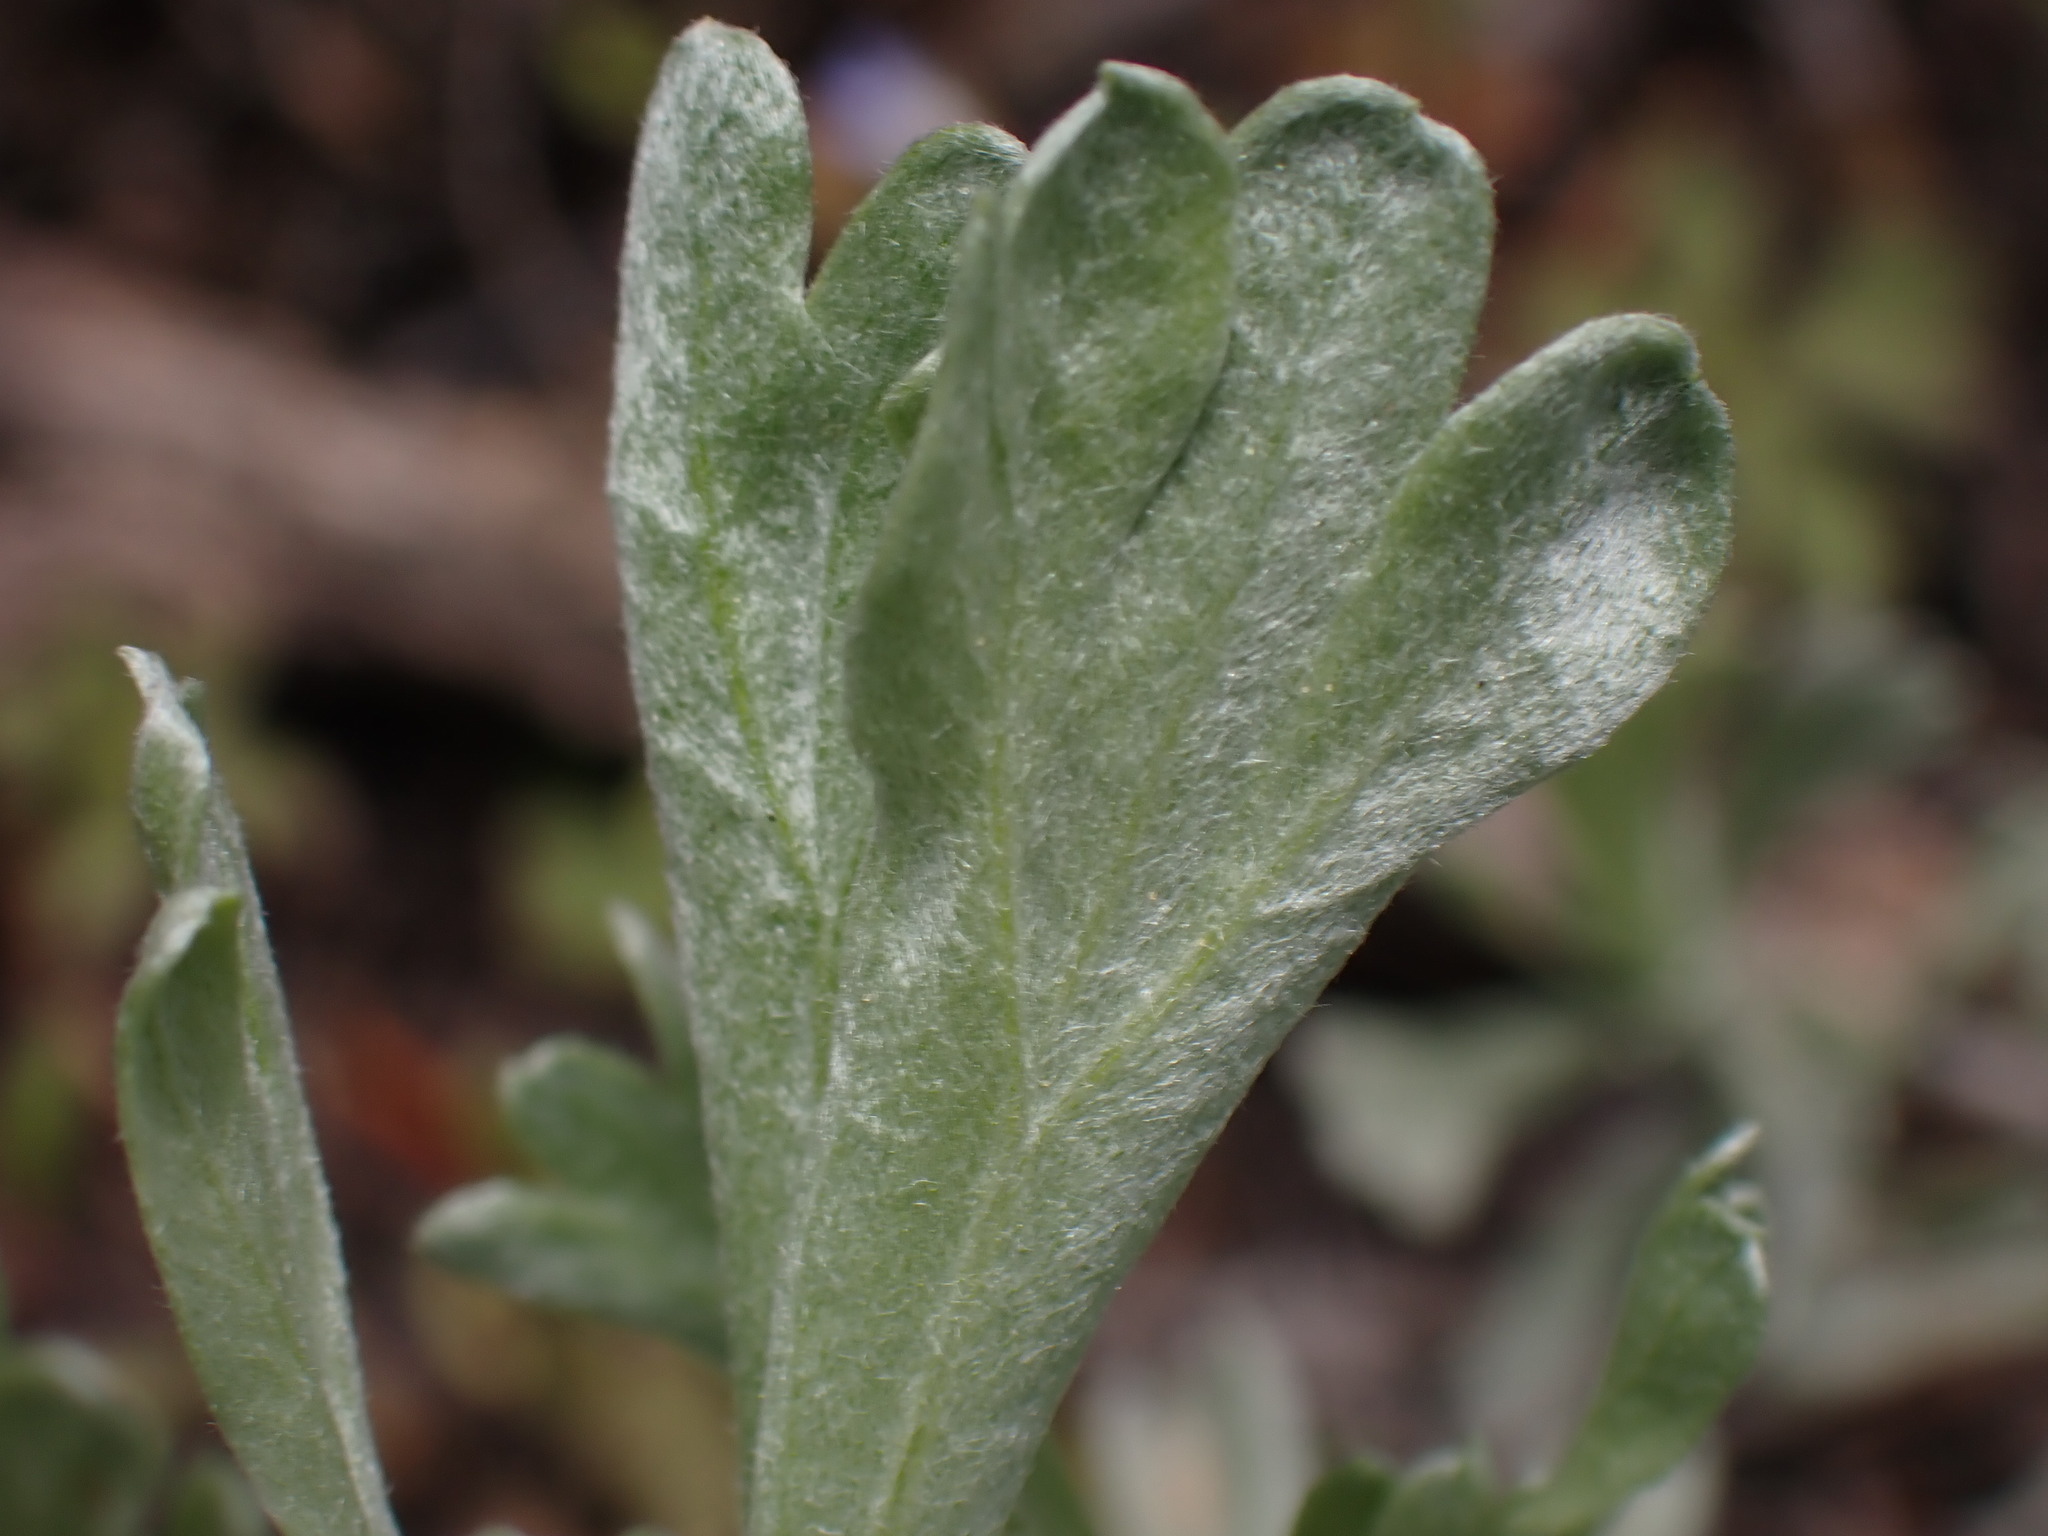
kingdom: Plantae
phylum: Tracheophyta
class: Magnoliopsida
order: Asterales
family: Asteraceae
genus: Artemisia
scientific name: Artemisia tridentata
